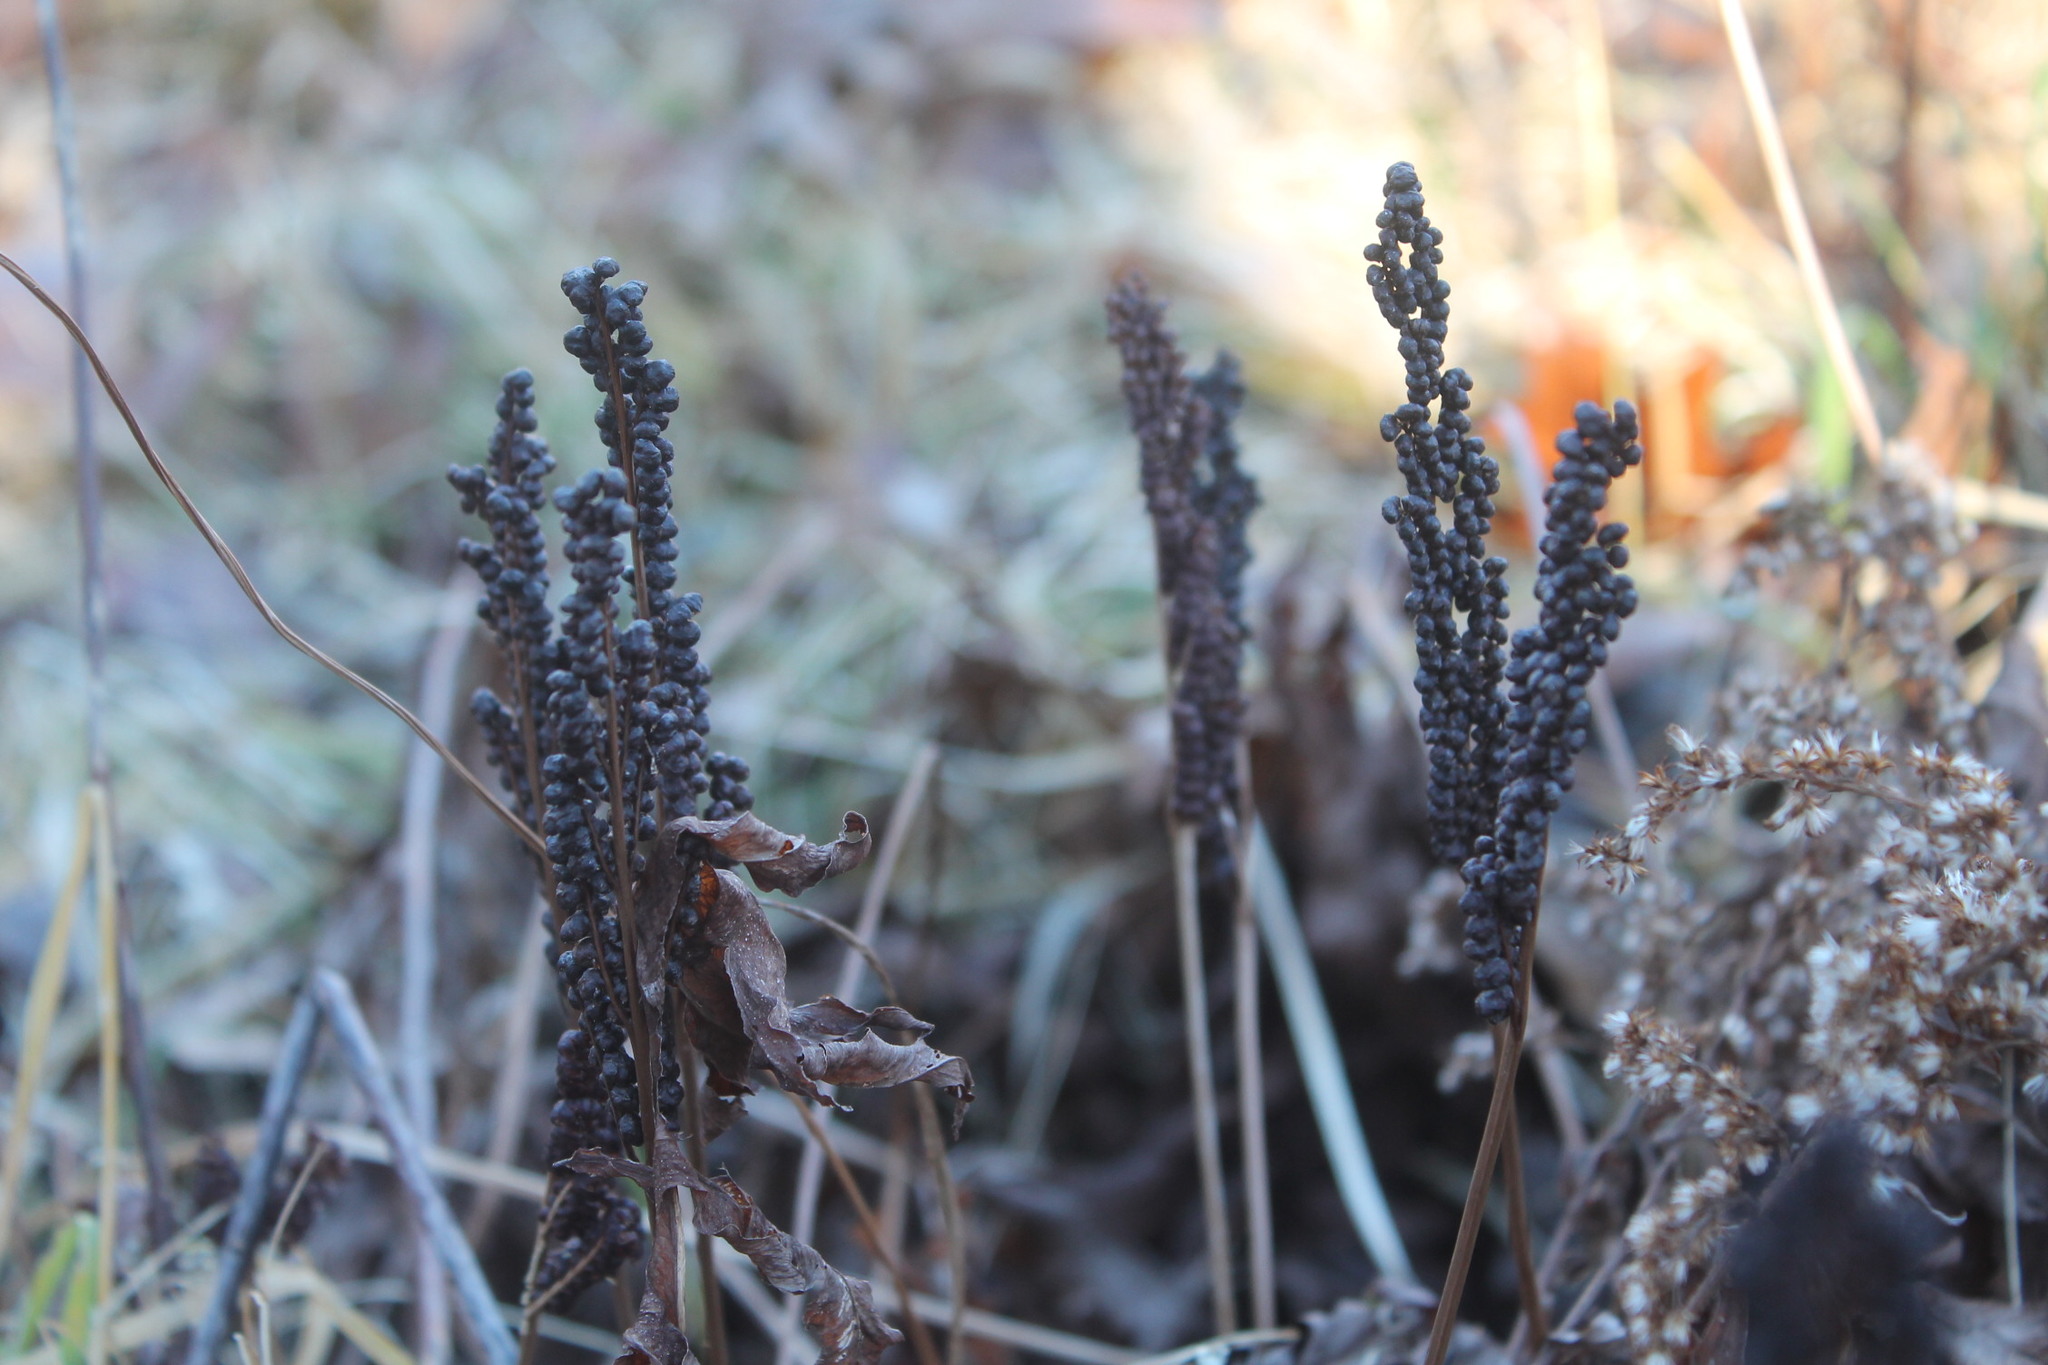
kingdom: Plantae
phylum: Tracheophyta
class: Polypodiopsida
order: Polypodiales
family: Onocleaceae
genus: Onoclea
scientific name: Onoclea sensibilis
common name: Sensitive fern
